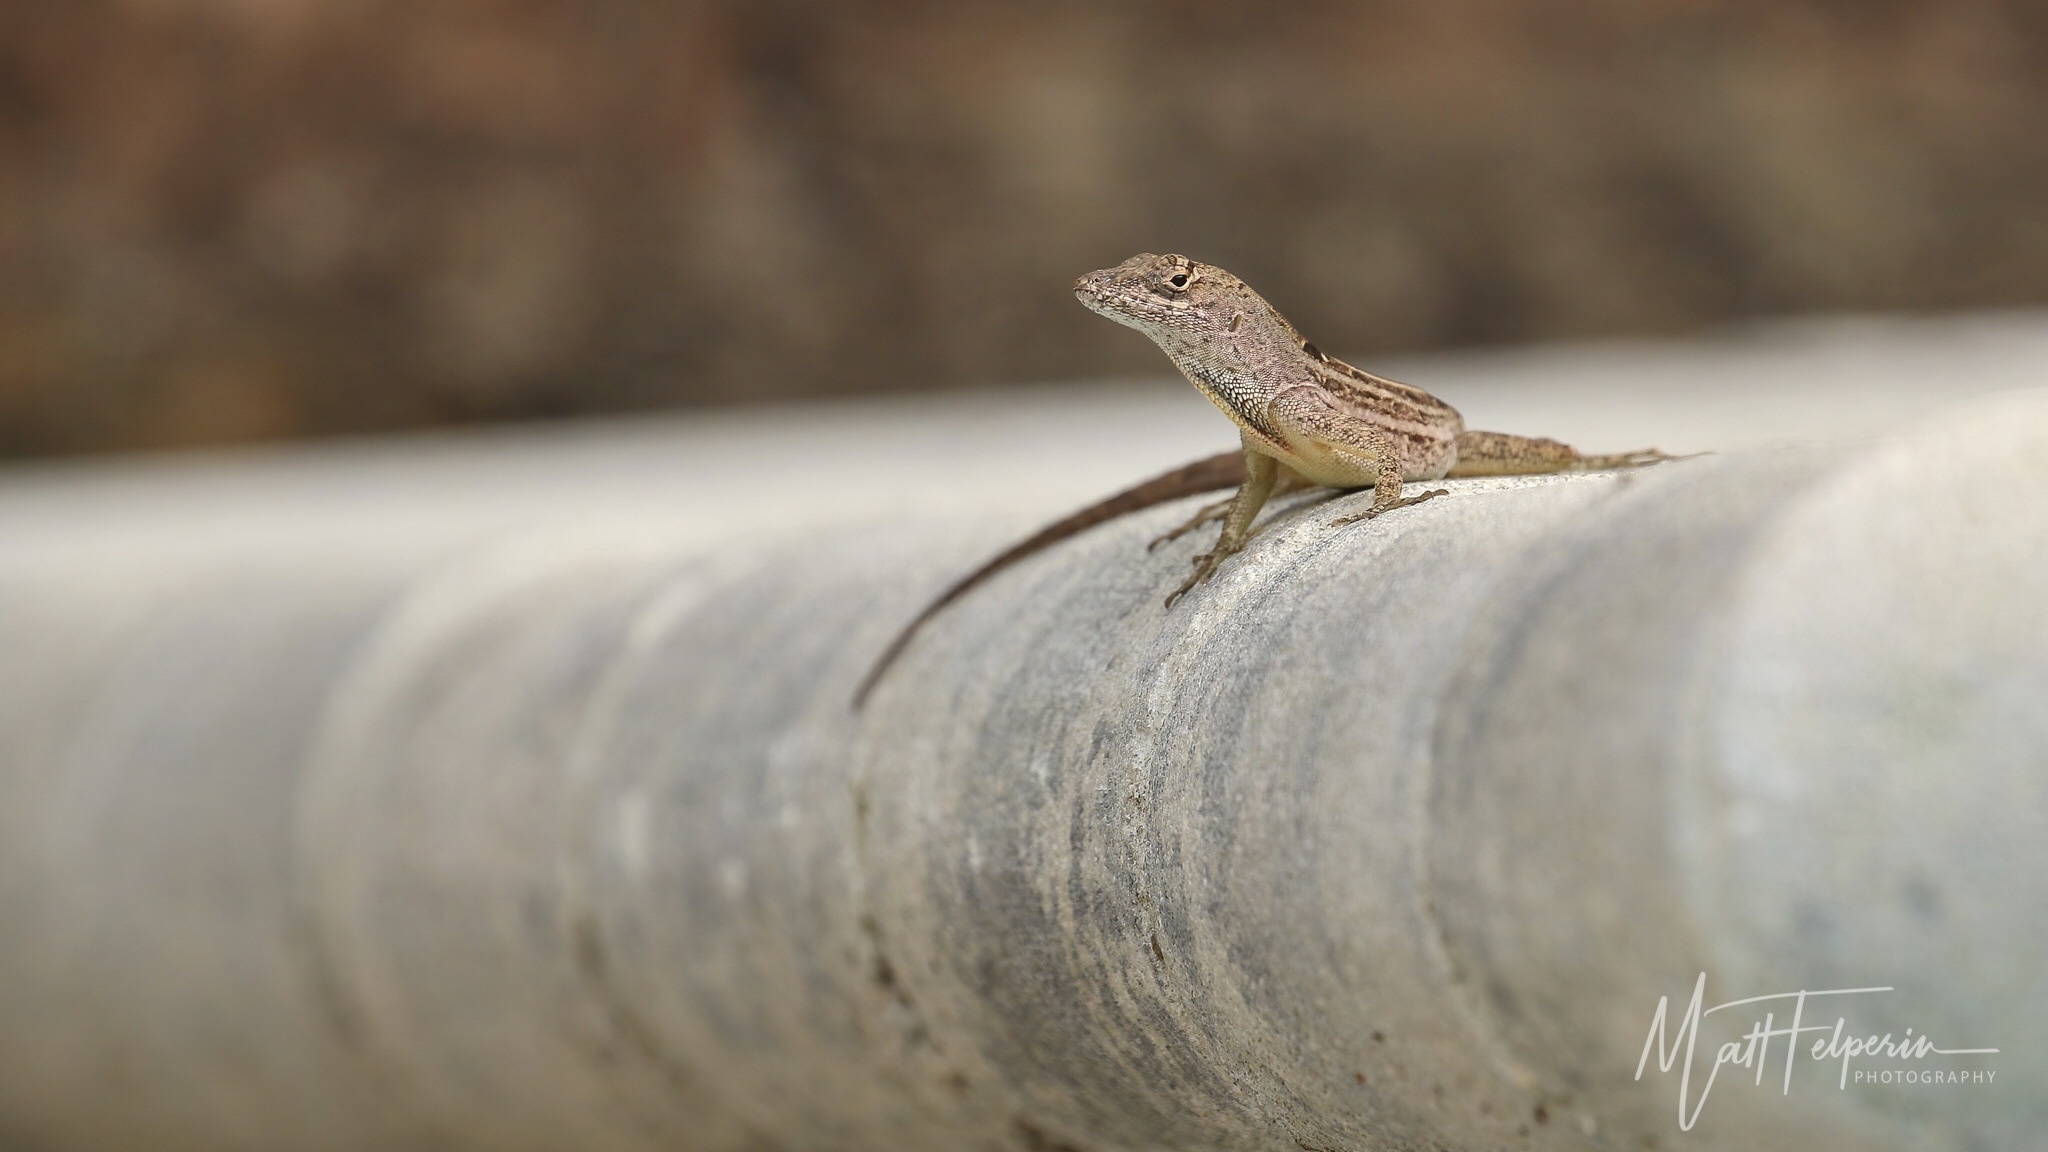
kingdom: Animalia
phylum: Chordata
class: Squamata
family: Dactyloidae
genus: Anolis
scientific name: Anolis sagrei
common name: Brown anole
